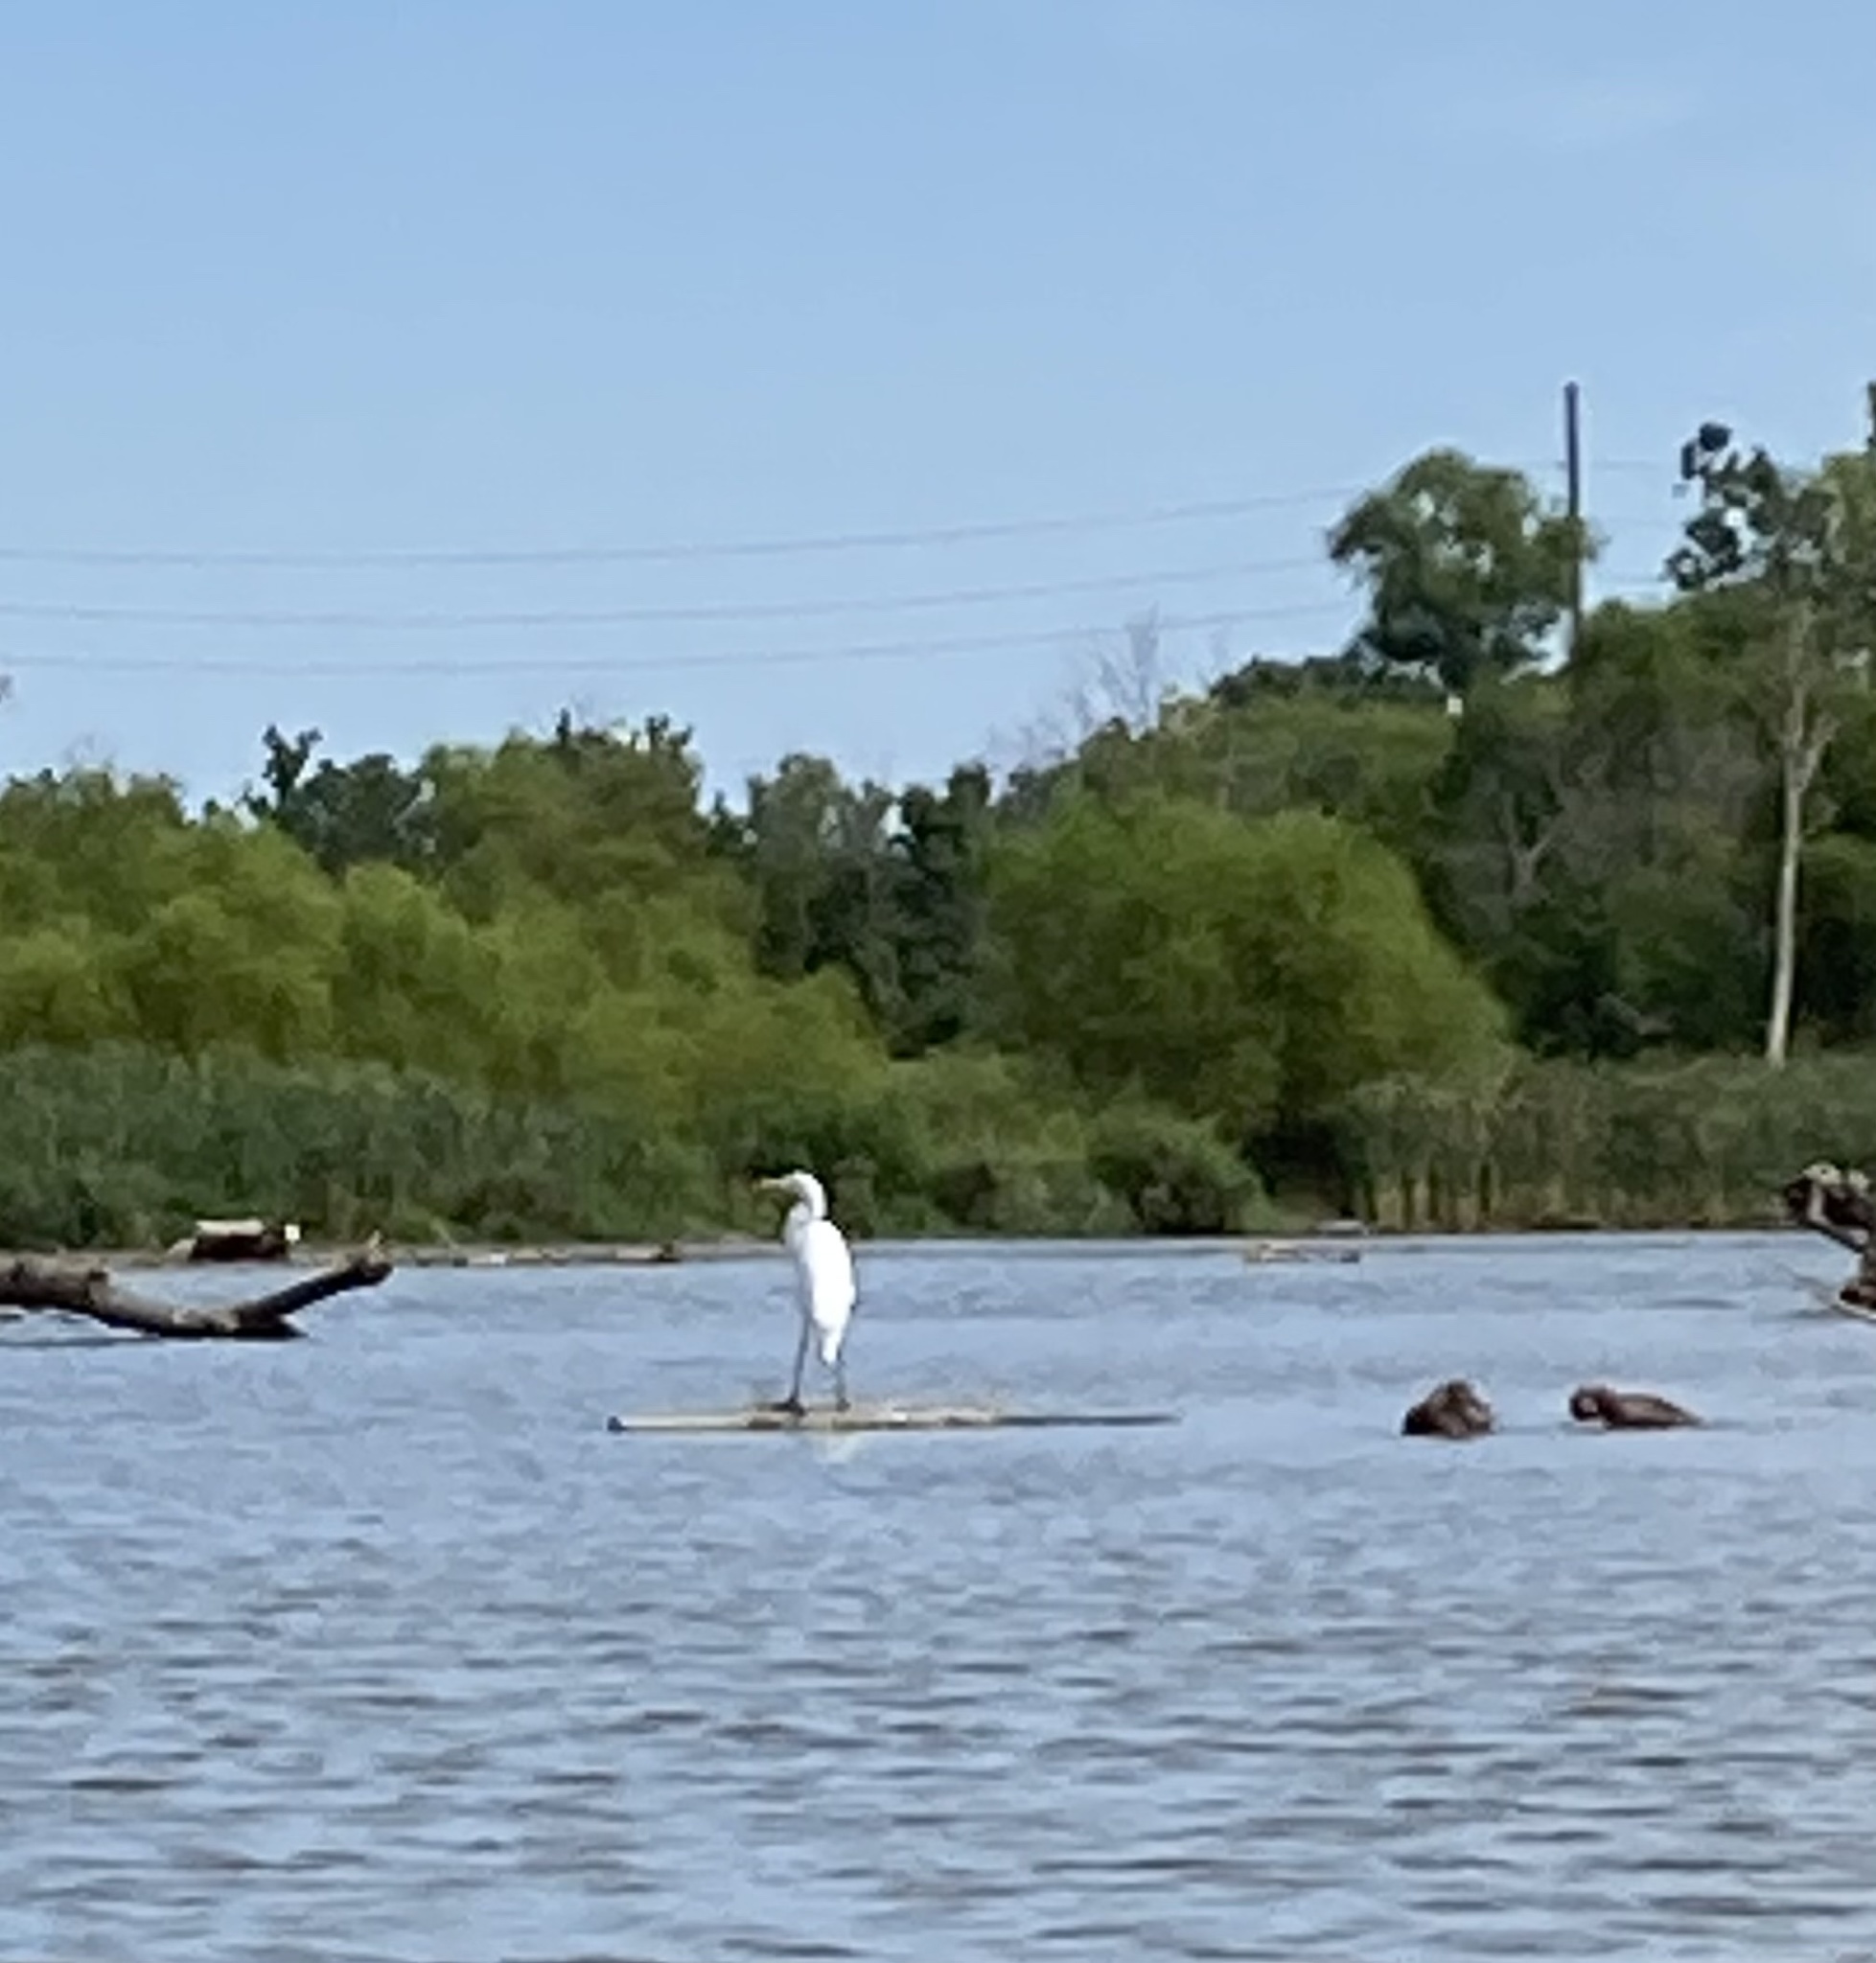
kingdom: Animalia
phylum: Chordata
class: Aves
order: Pelecaniformes
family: Ardeidae
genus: Ardea
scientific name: Ardea alba
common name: Great egret
